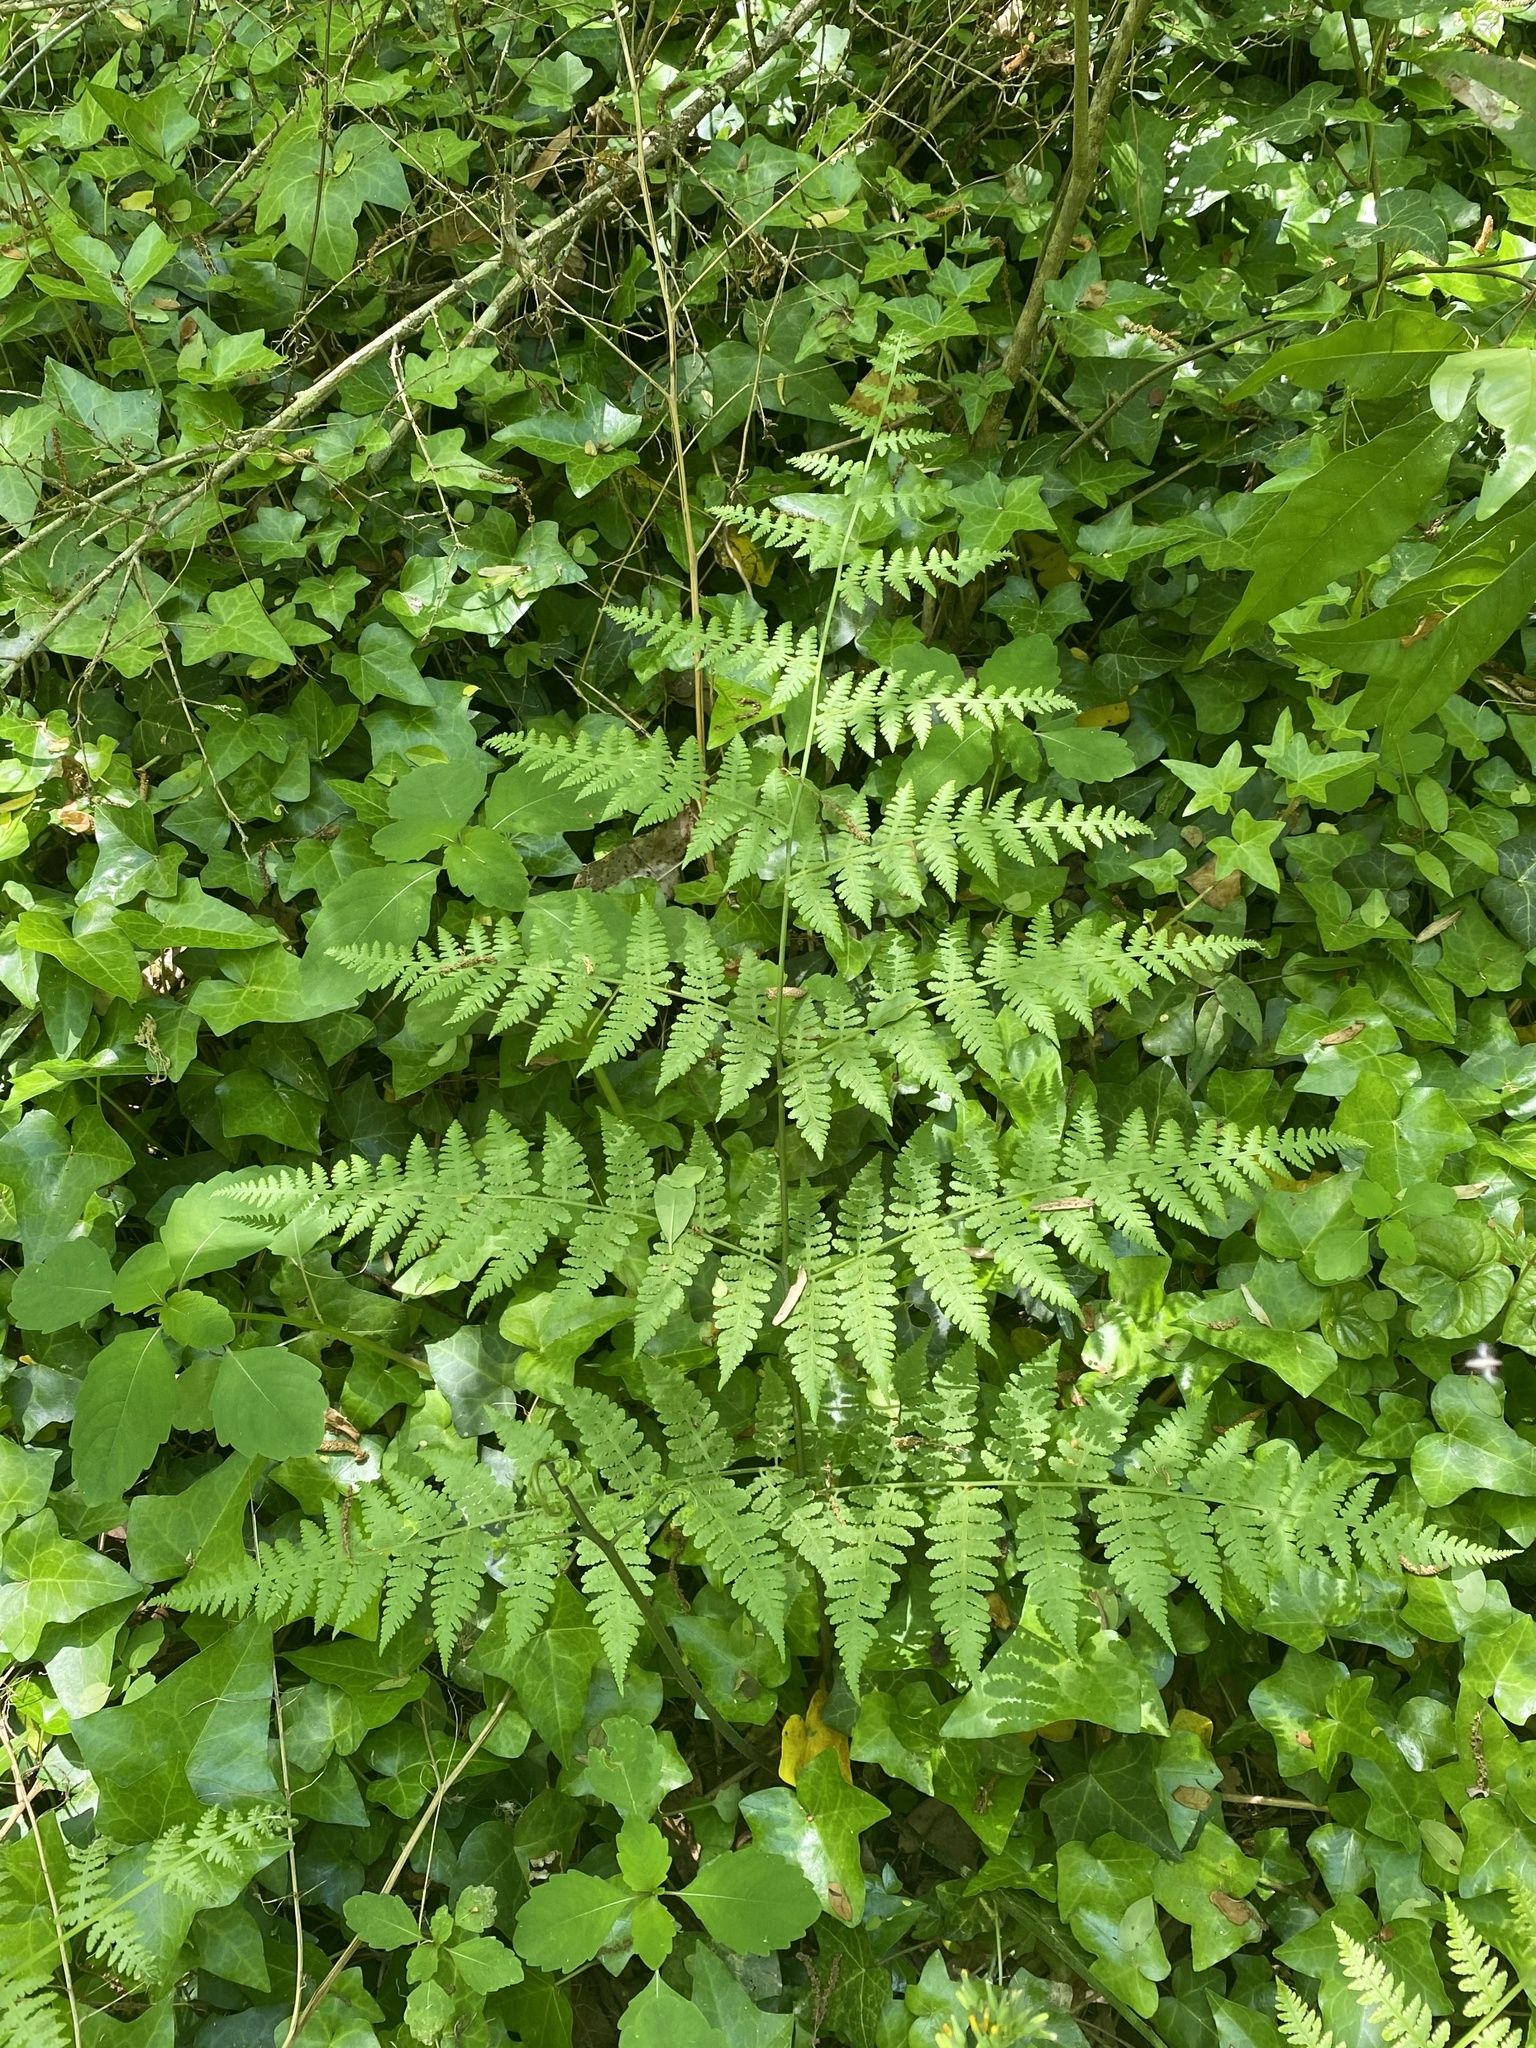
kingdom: Plantae
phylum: Tracheophyta
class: Polypodiopsida
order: Polypodiales
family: Thelypteridaceae
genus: Macrothelypteris
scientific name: Macrothelypteris torresiana
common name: Swordfern
